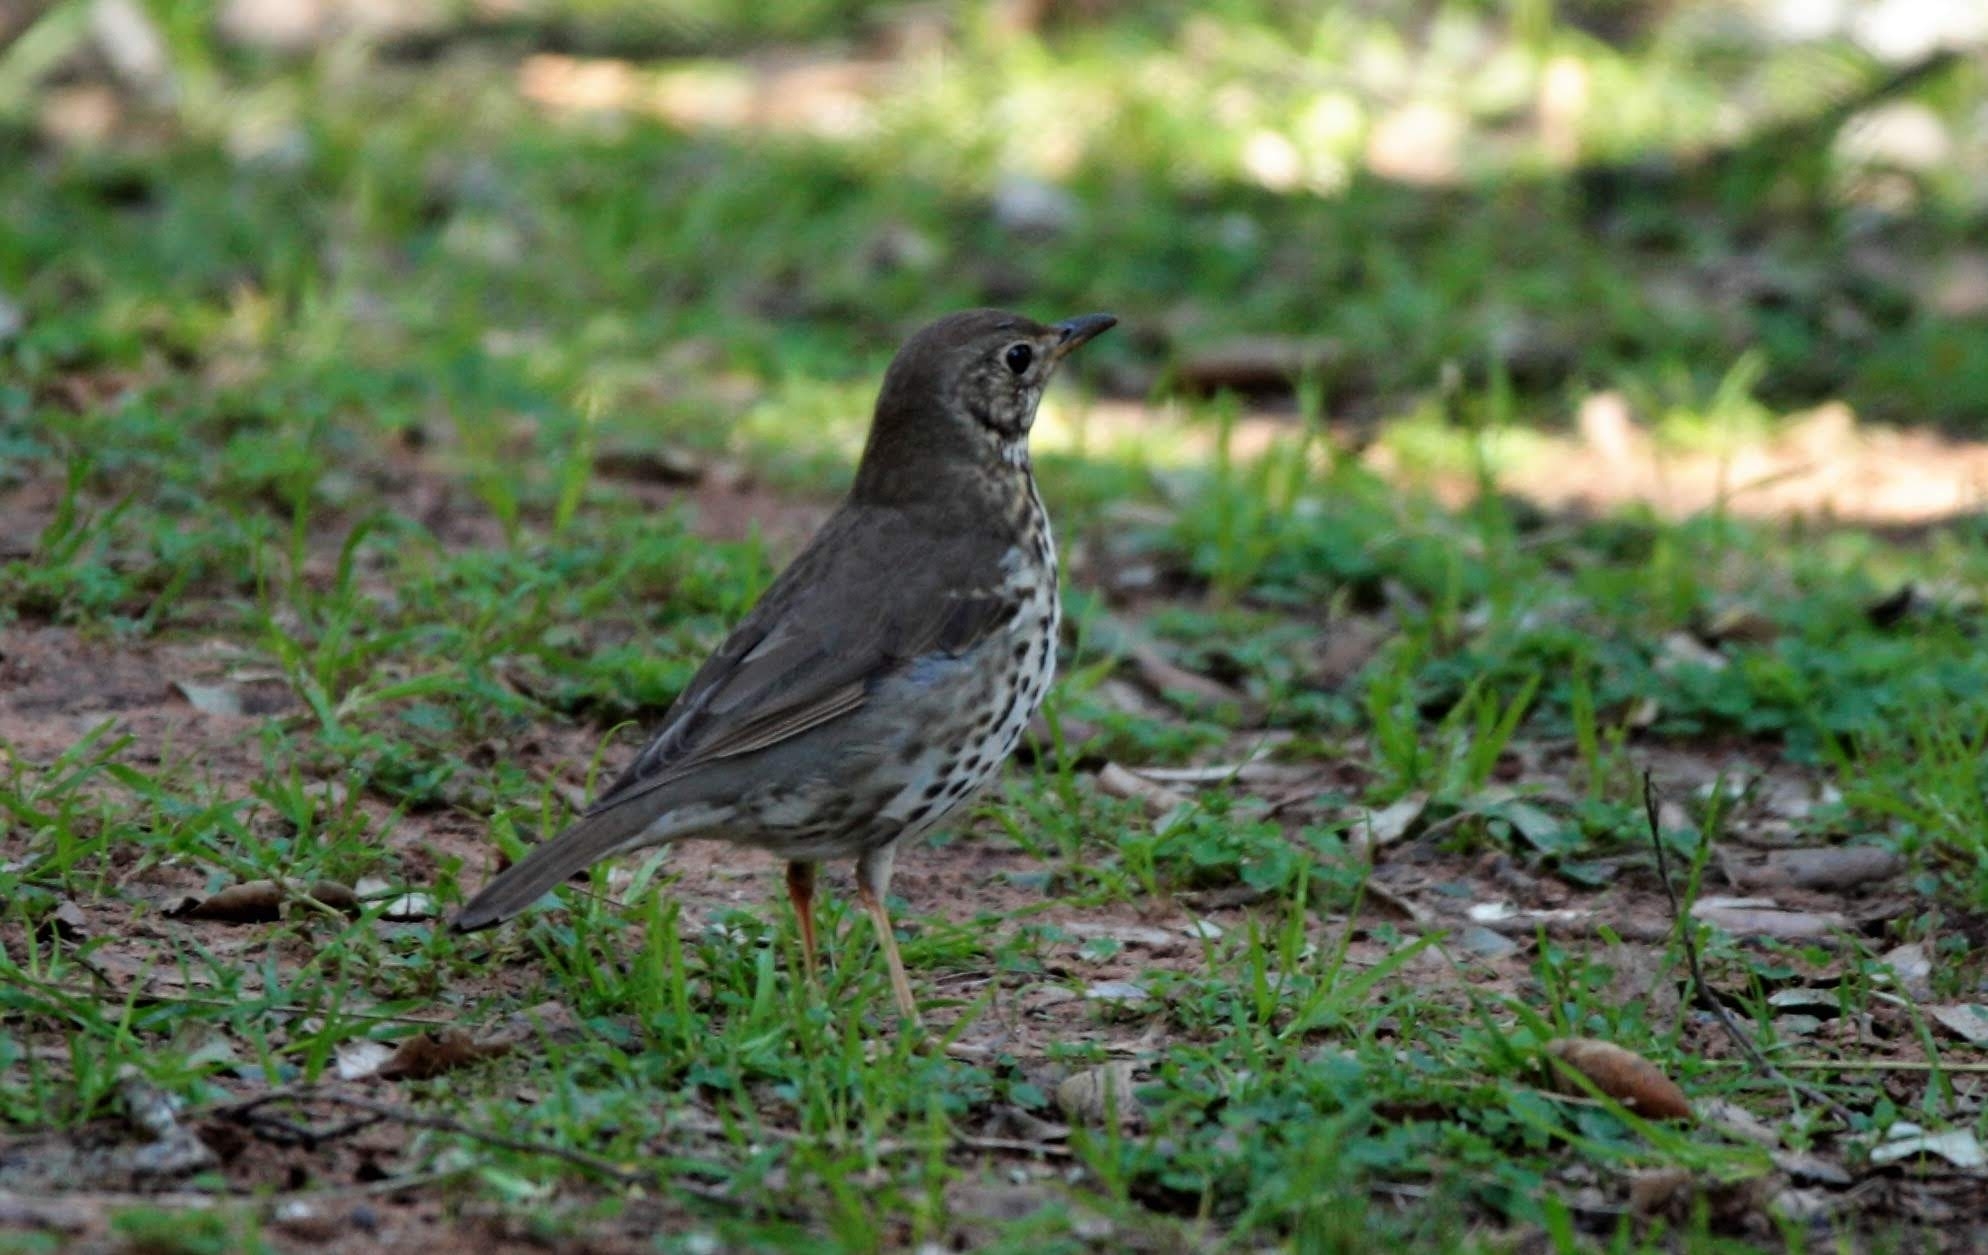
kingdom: Animalia
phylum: Chordata
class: Aves
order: Passeriformes
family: Turdidae
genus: Turdus
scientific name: Turdus philomelos
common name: Song thrush
